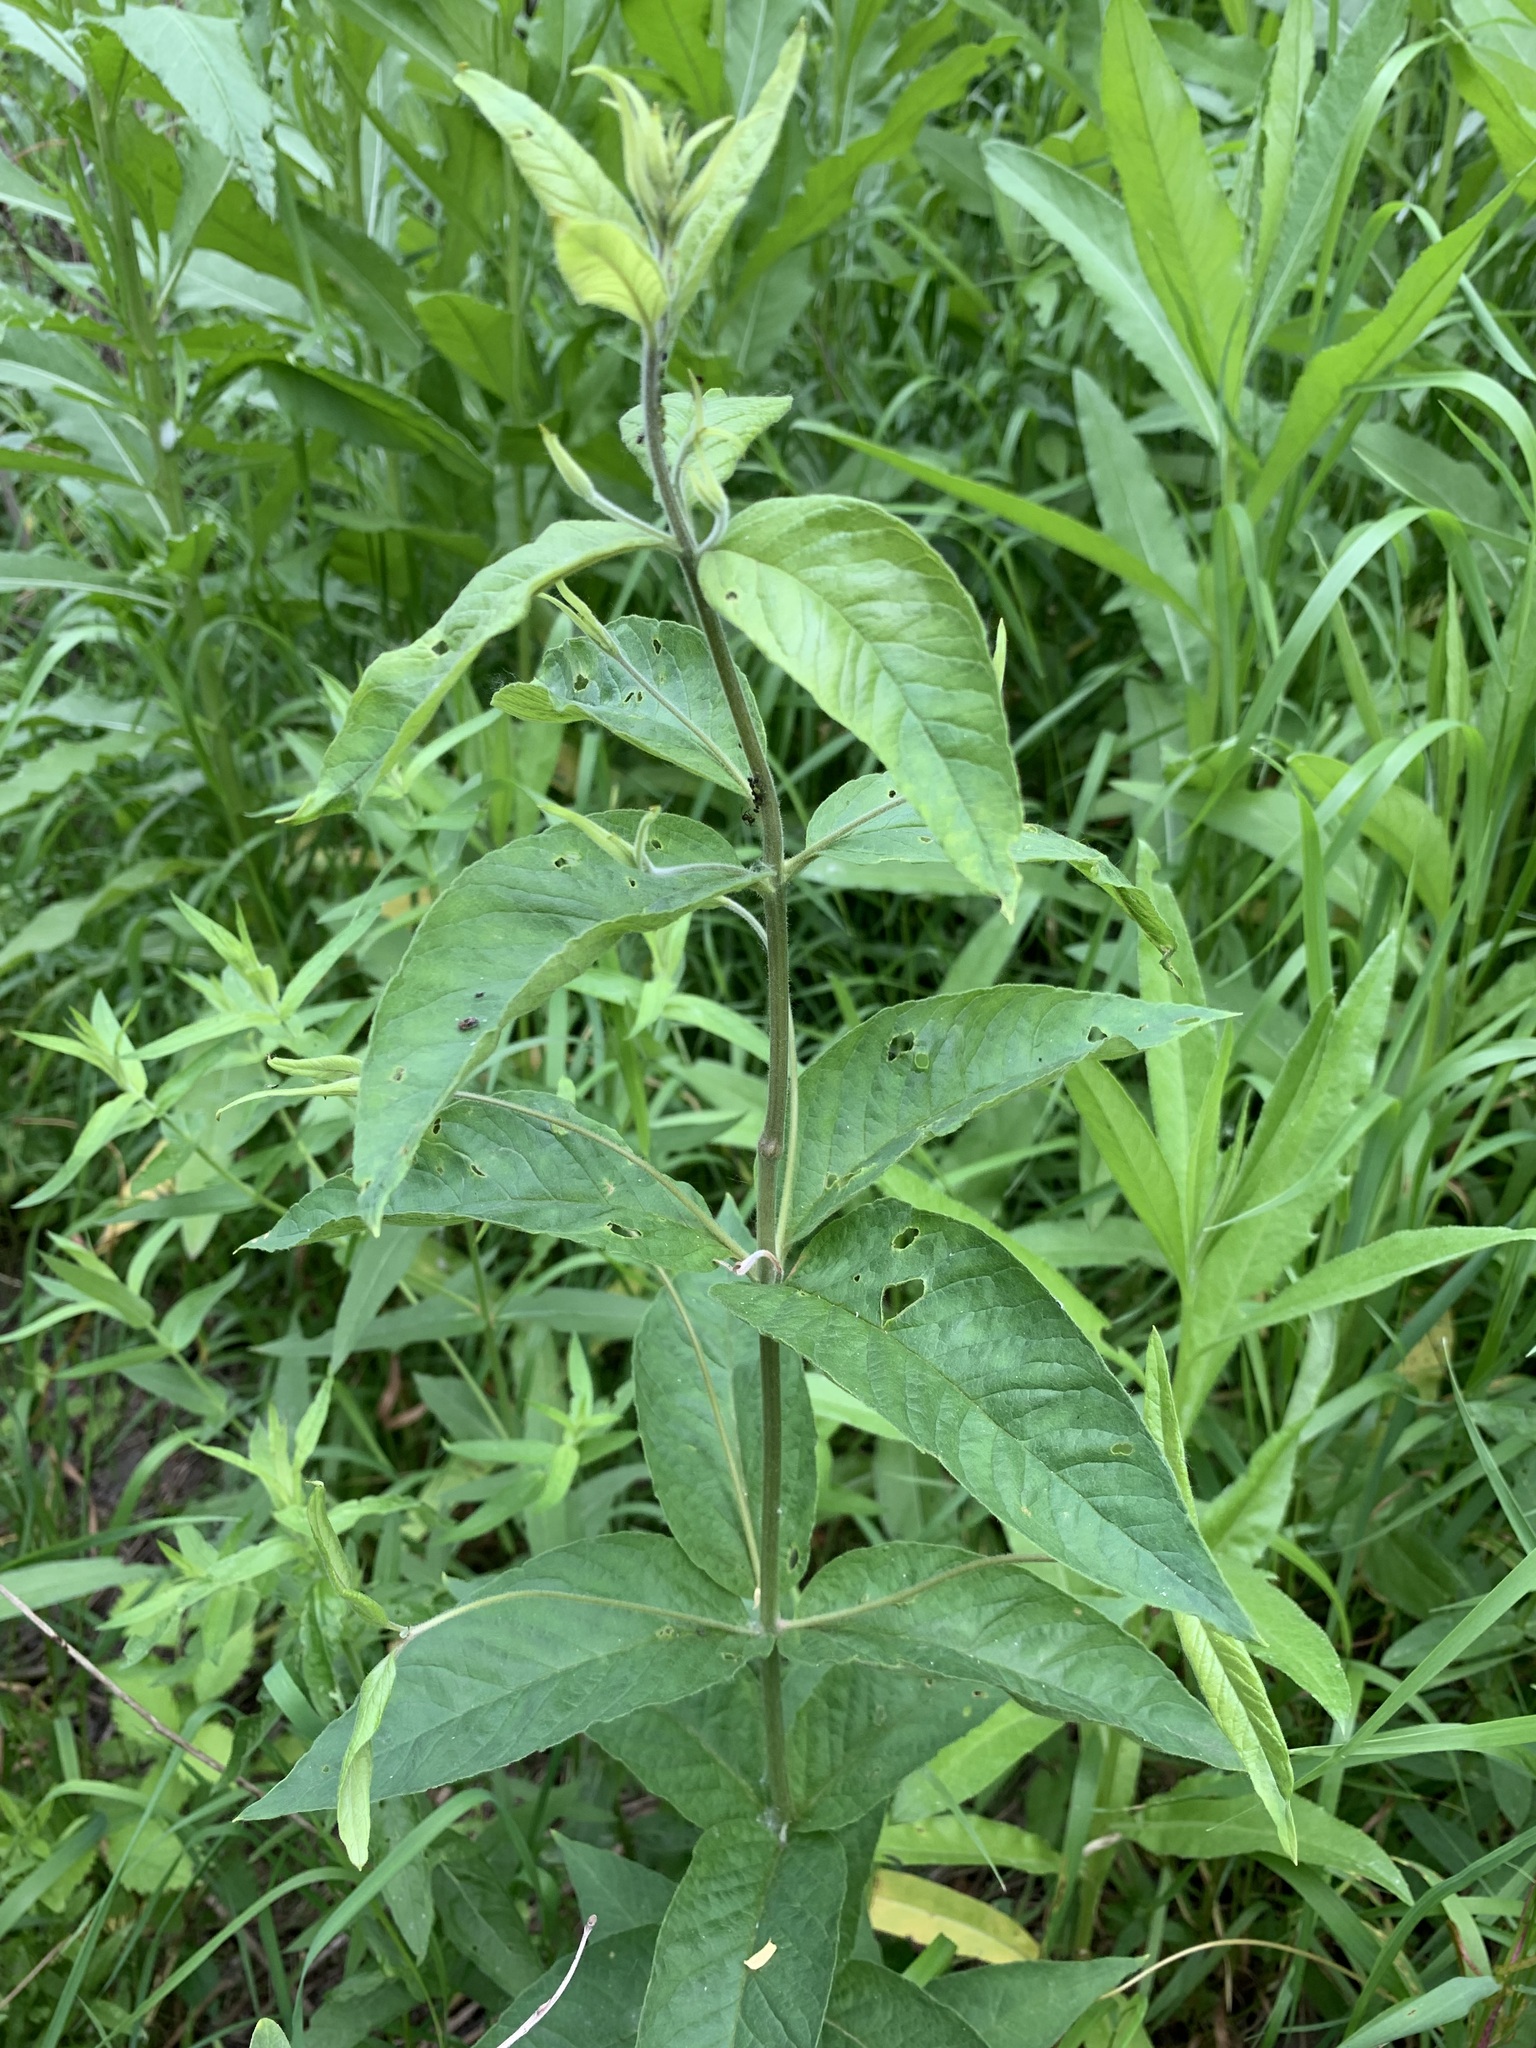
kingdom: Plantae
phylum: Tracheophyta
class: Magnoliopsida
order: Ericales
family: Primulaceae
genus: Lysimachia
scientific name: Lysimachia vulgaris
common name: Yellow loosestrife
